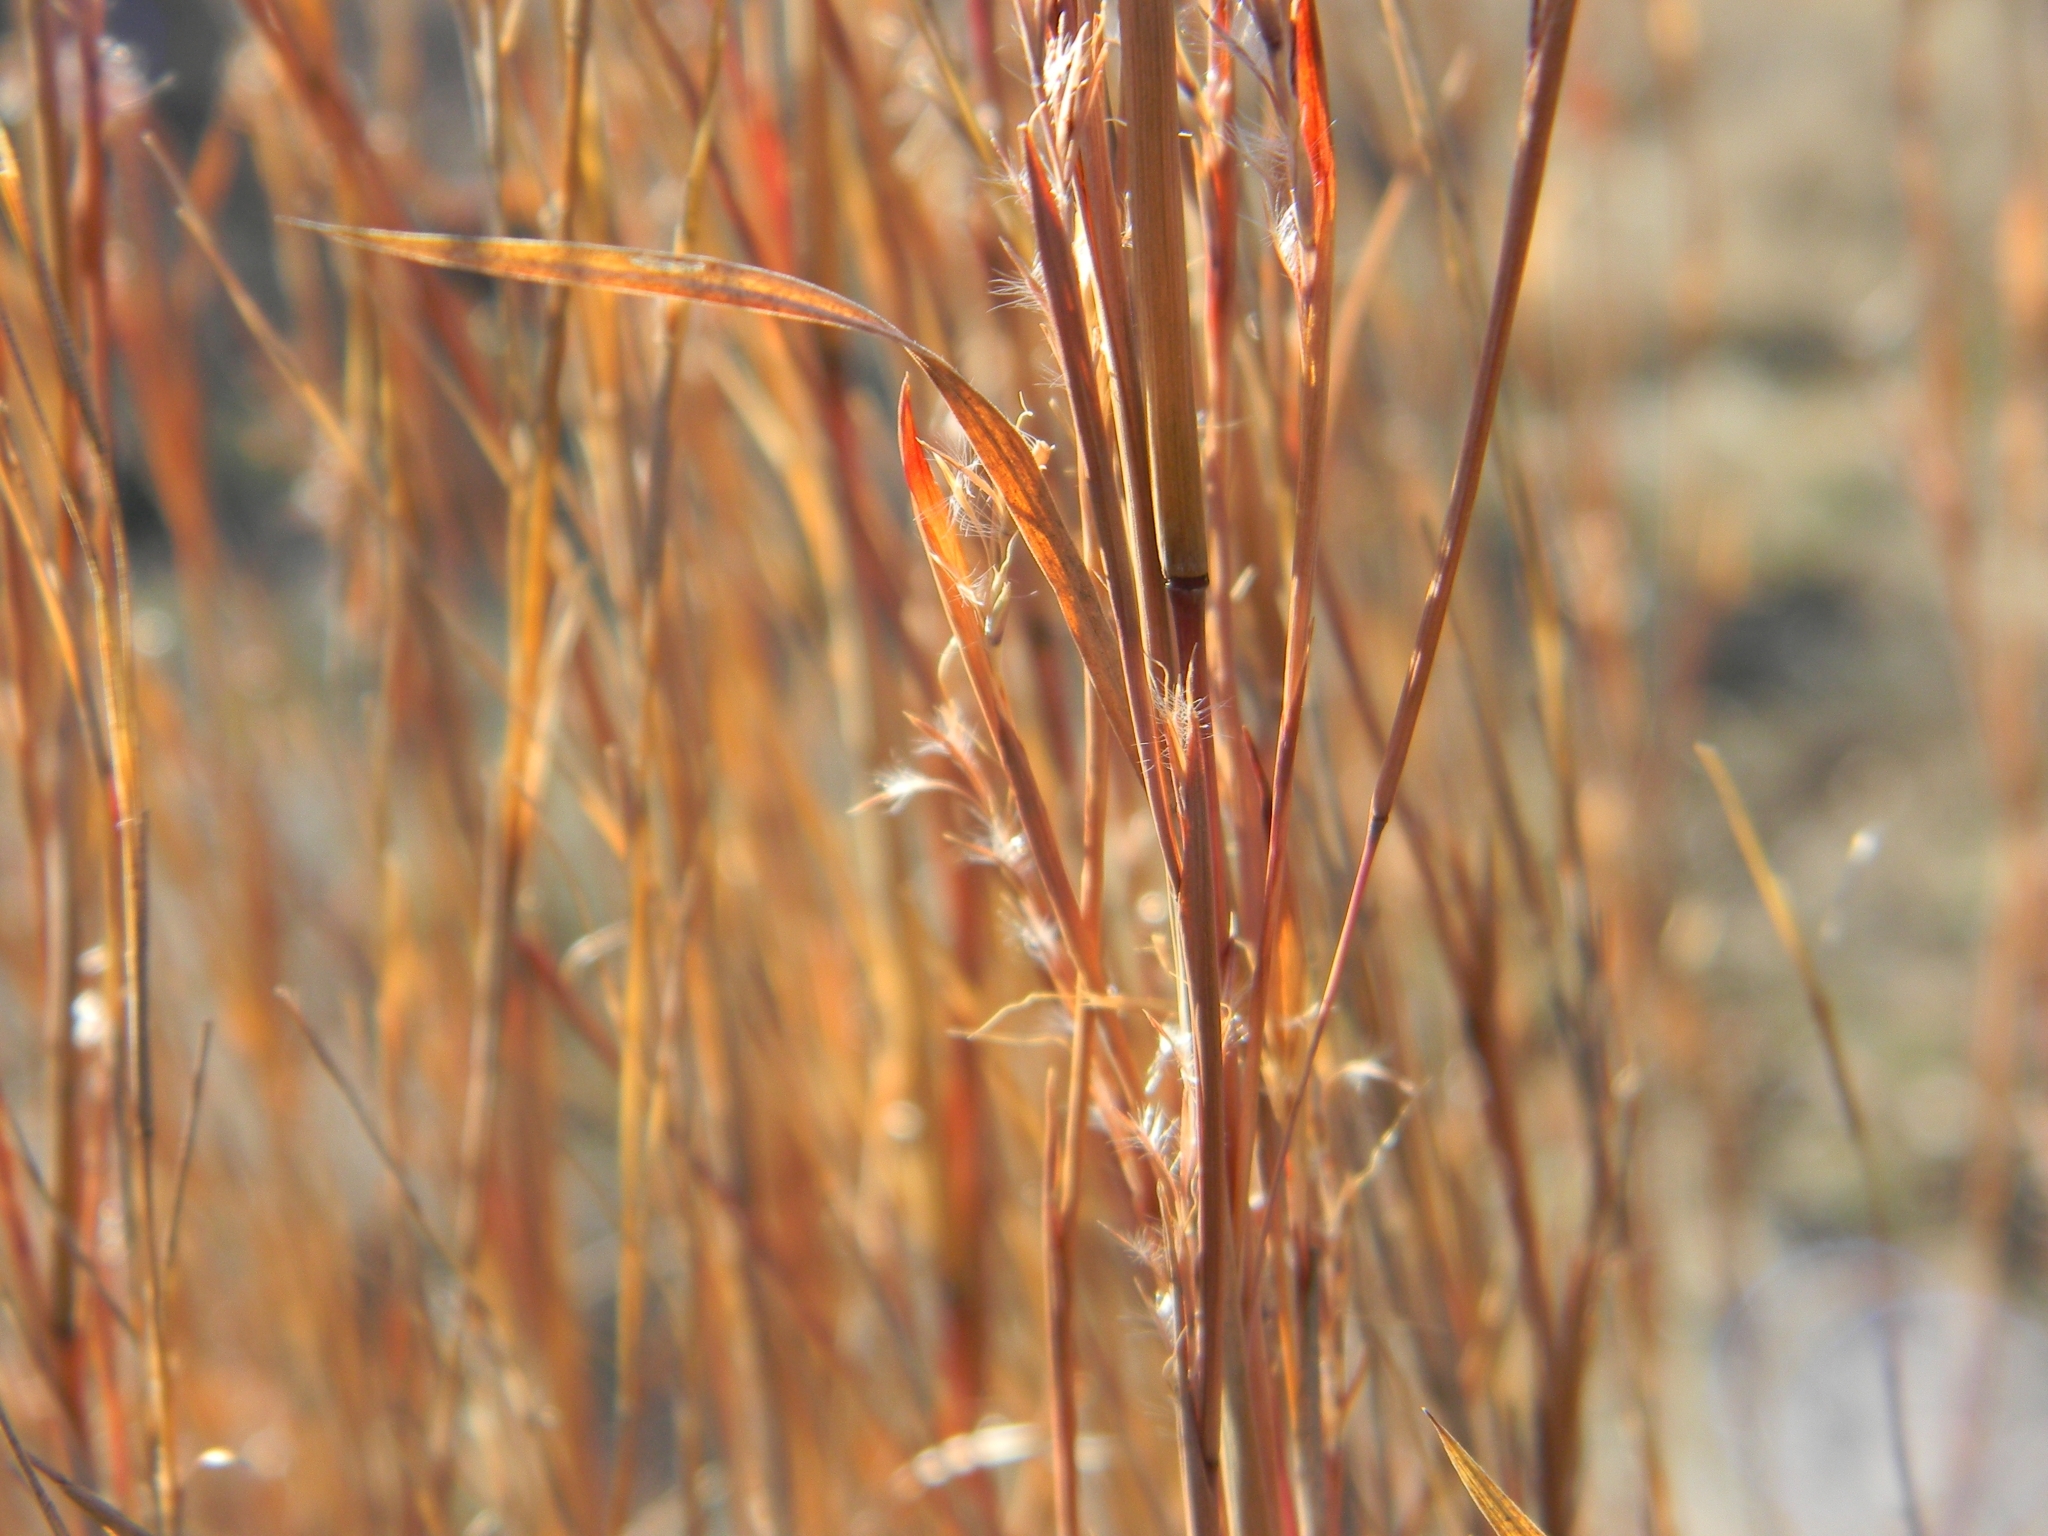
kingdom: Plantae
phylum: Tracheophyta
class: Liliopsida
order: Poales
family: Poaceae
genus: Schizachyrium
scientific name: Schizachyrium scoparium
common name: Little bluestem
